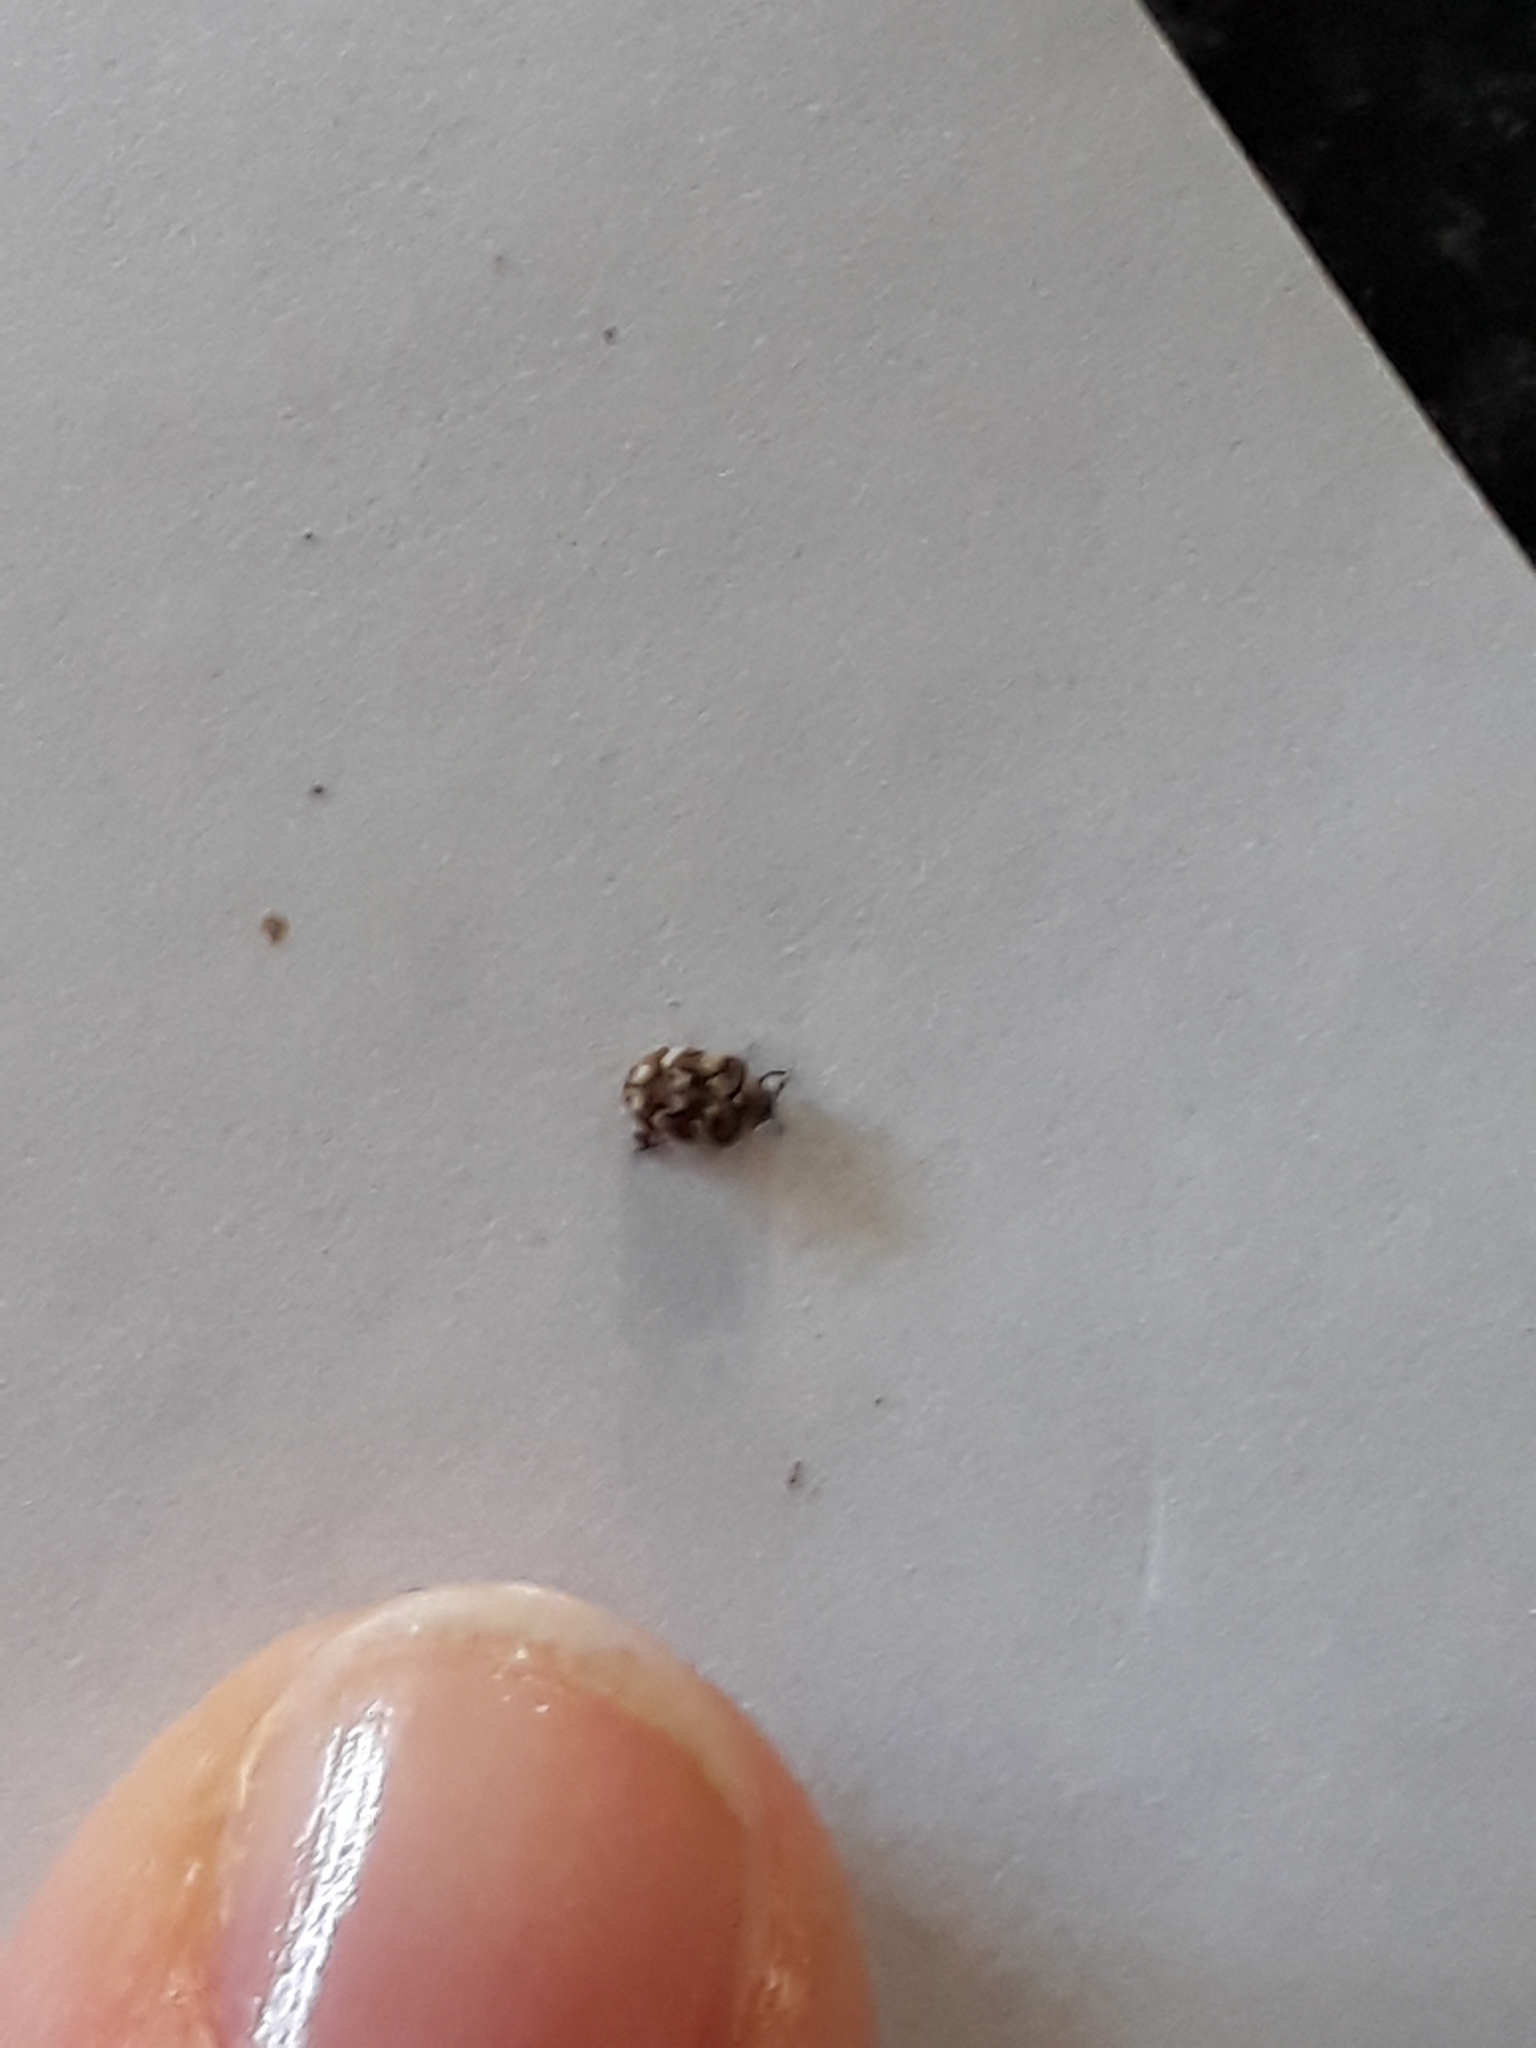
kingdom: Animalia
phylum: Arthropoda
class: Insecta
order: Coleoptera
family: Dermestidae
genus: Anthrenus
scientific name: Anthrenus verbasci
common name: Varied carpet beetle
